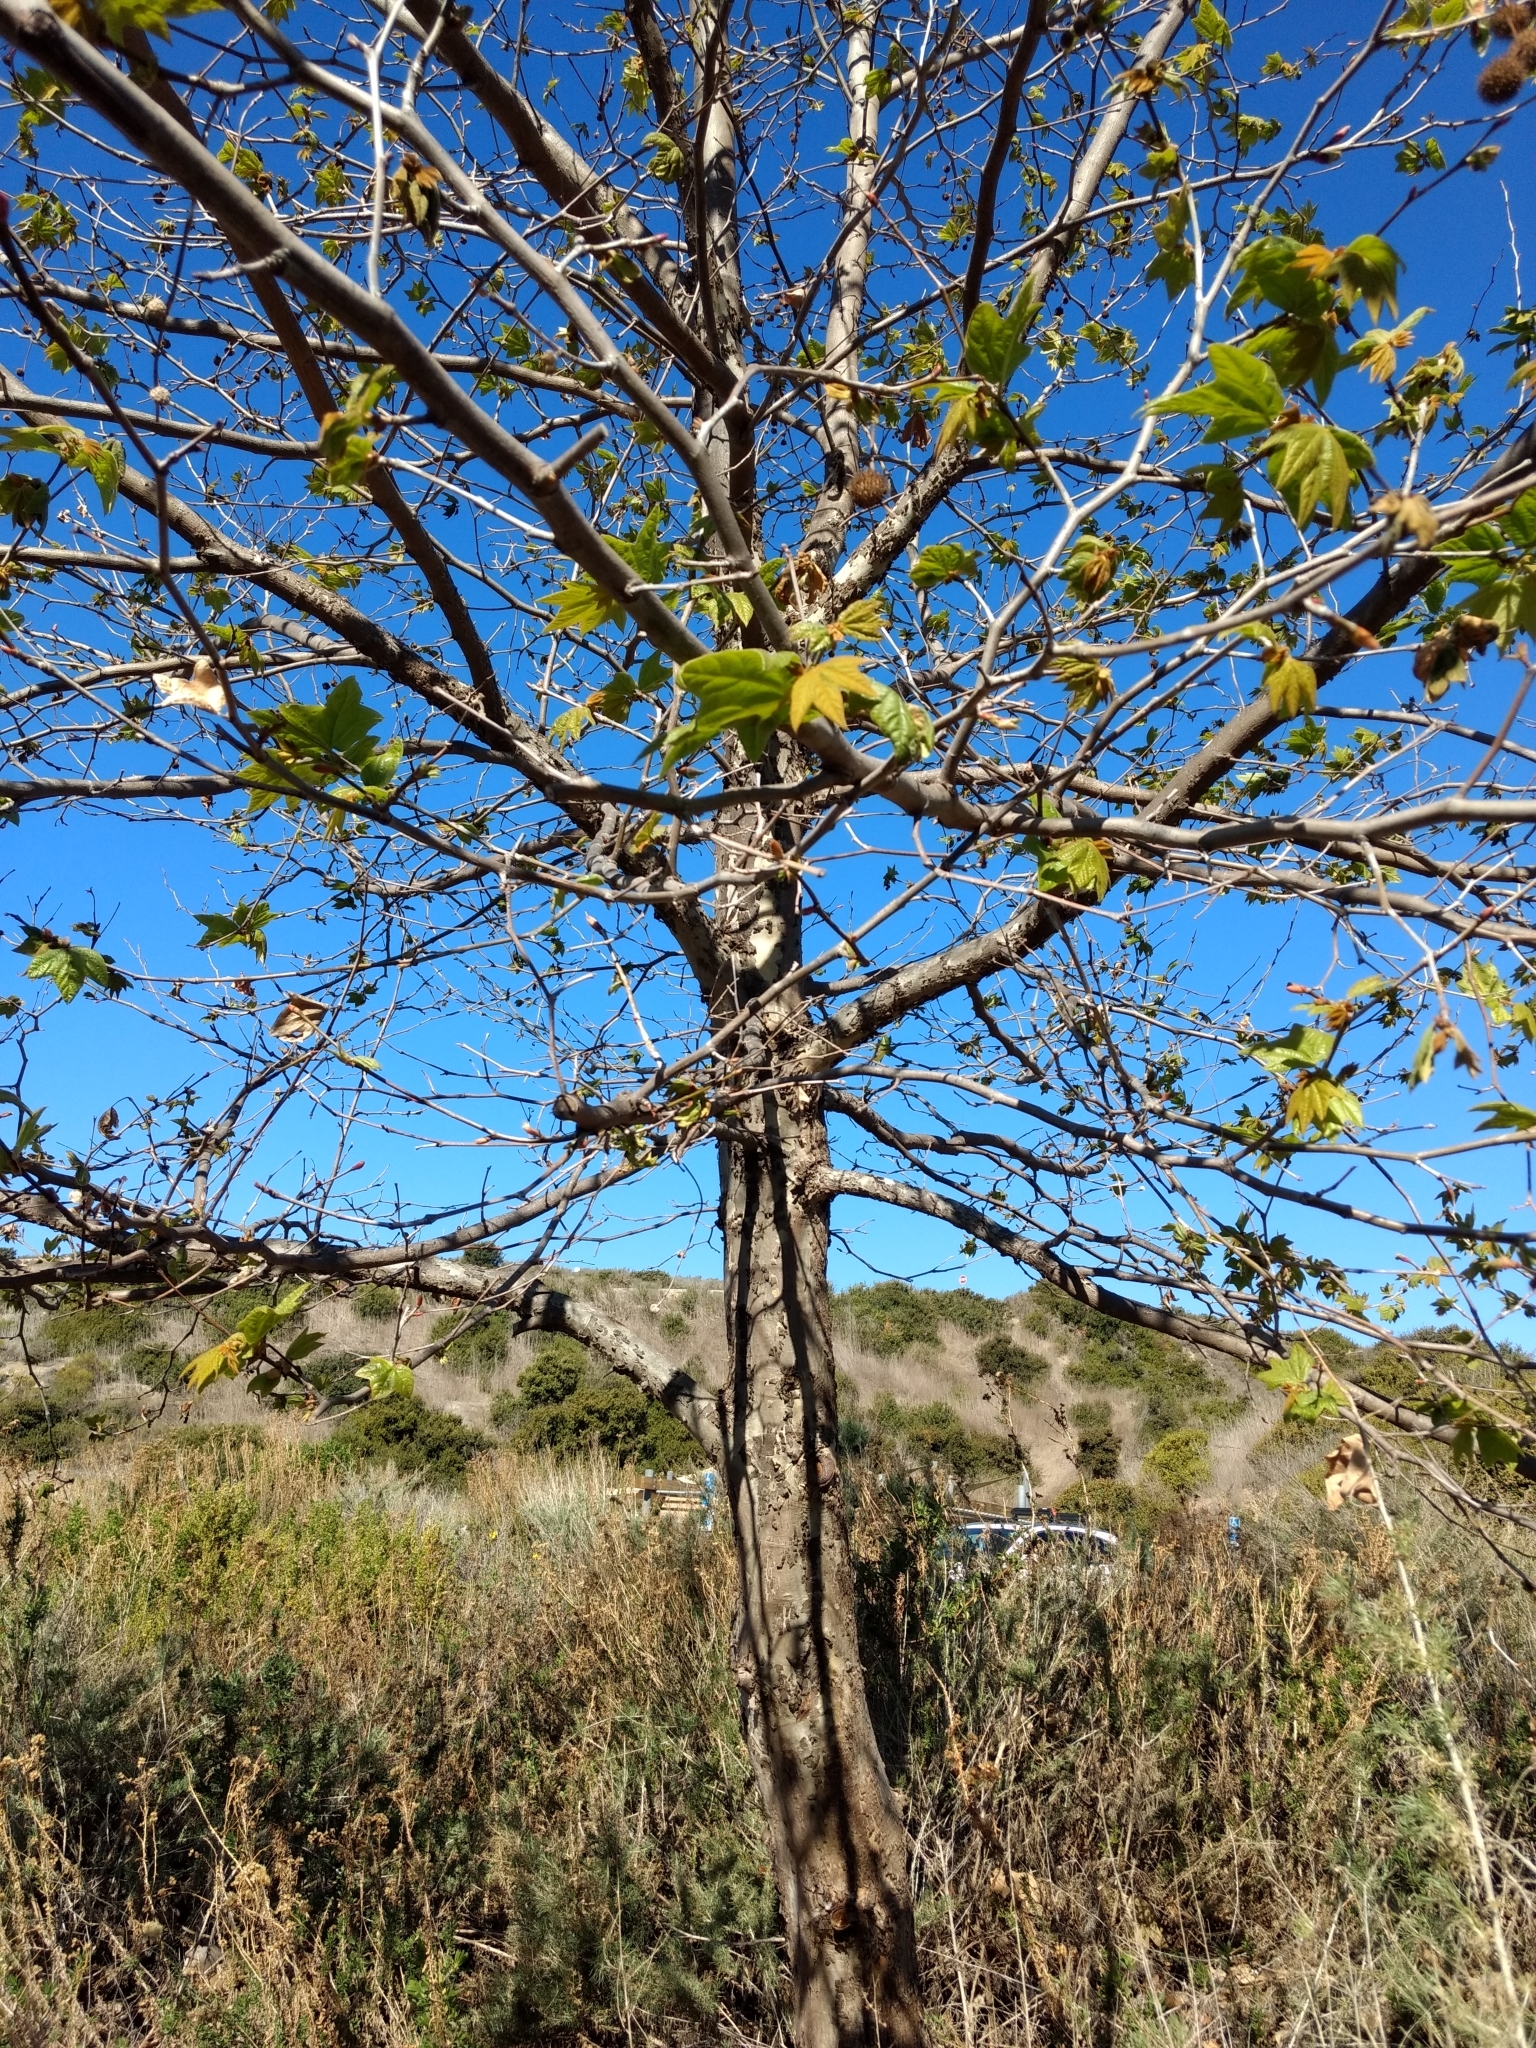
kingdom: Plantae
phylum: Tracheophyta
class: Magnoliopsida
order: Proteales
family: Platanaceae
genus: Platanus
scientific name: Platanus racemosa
